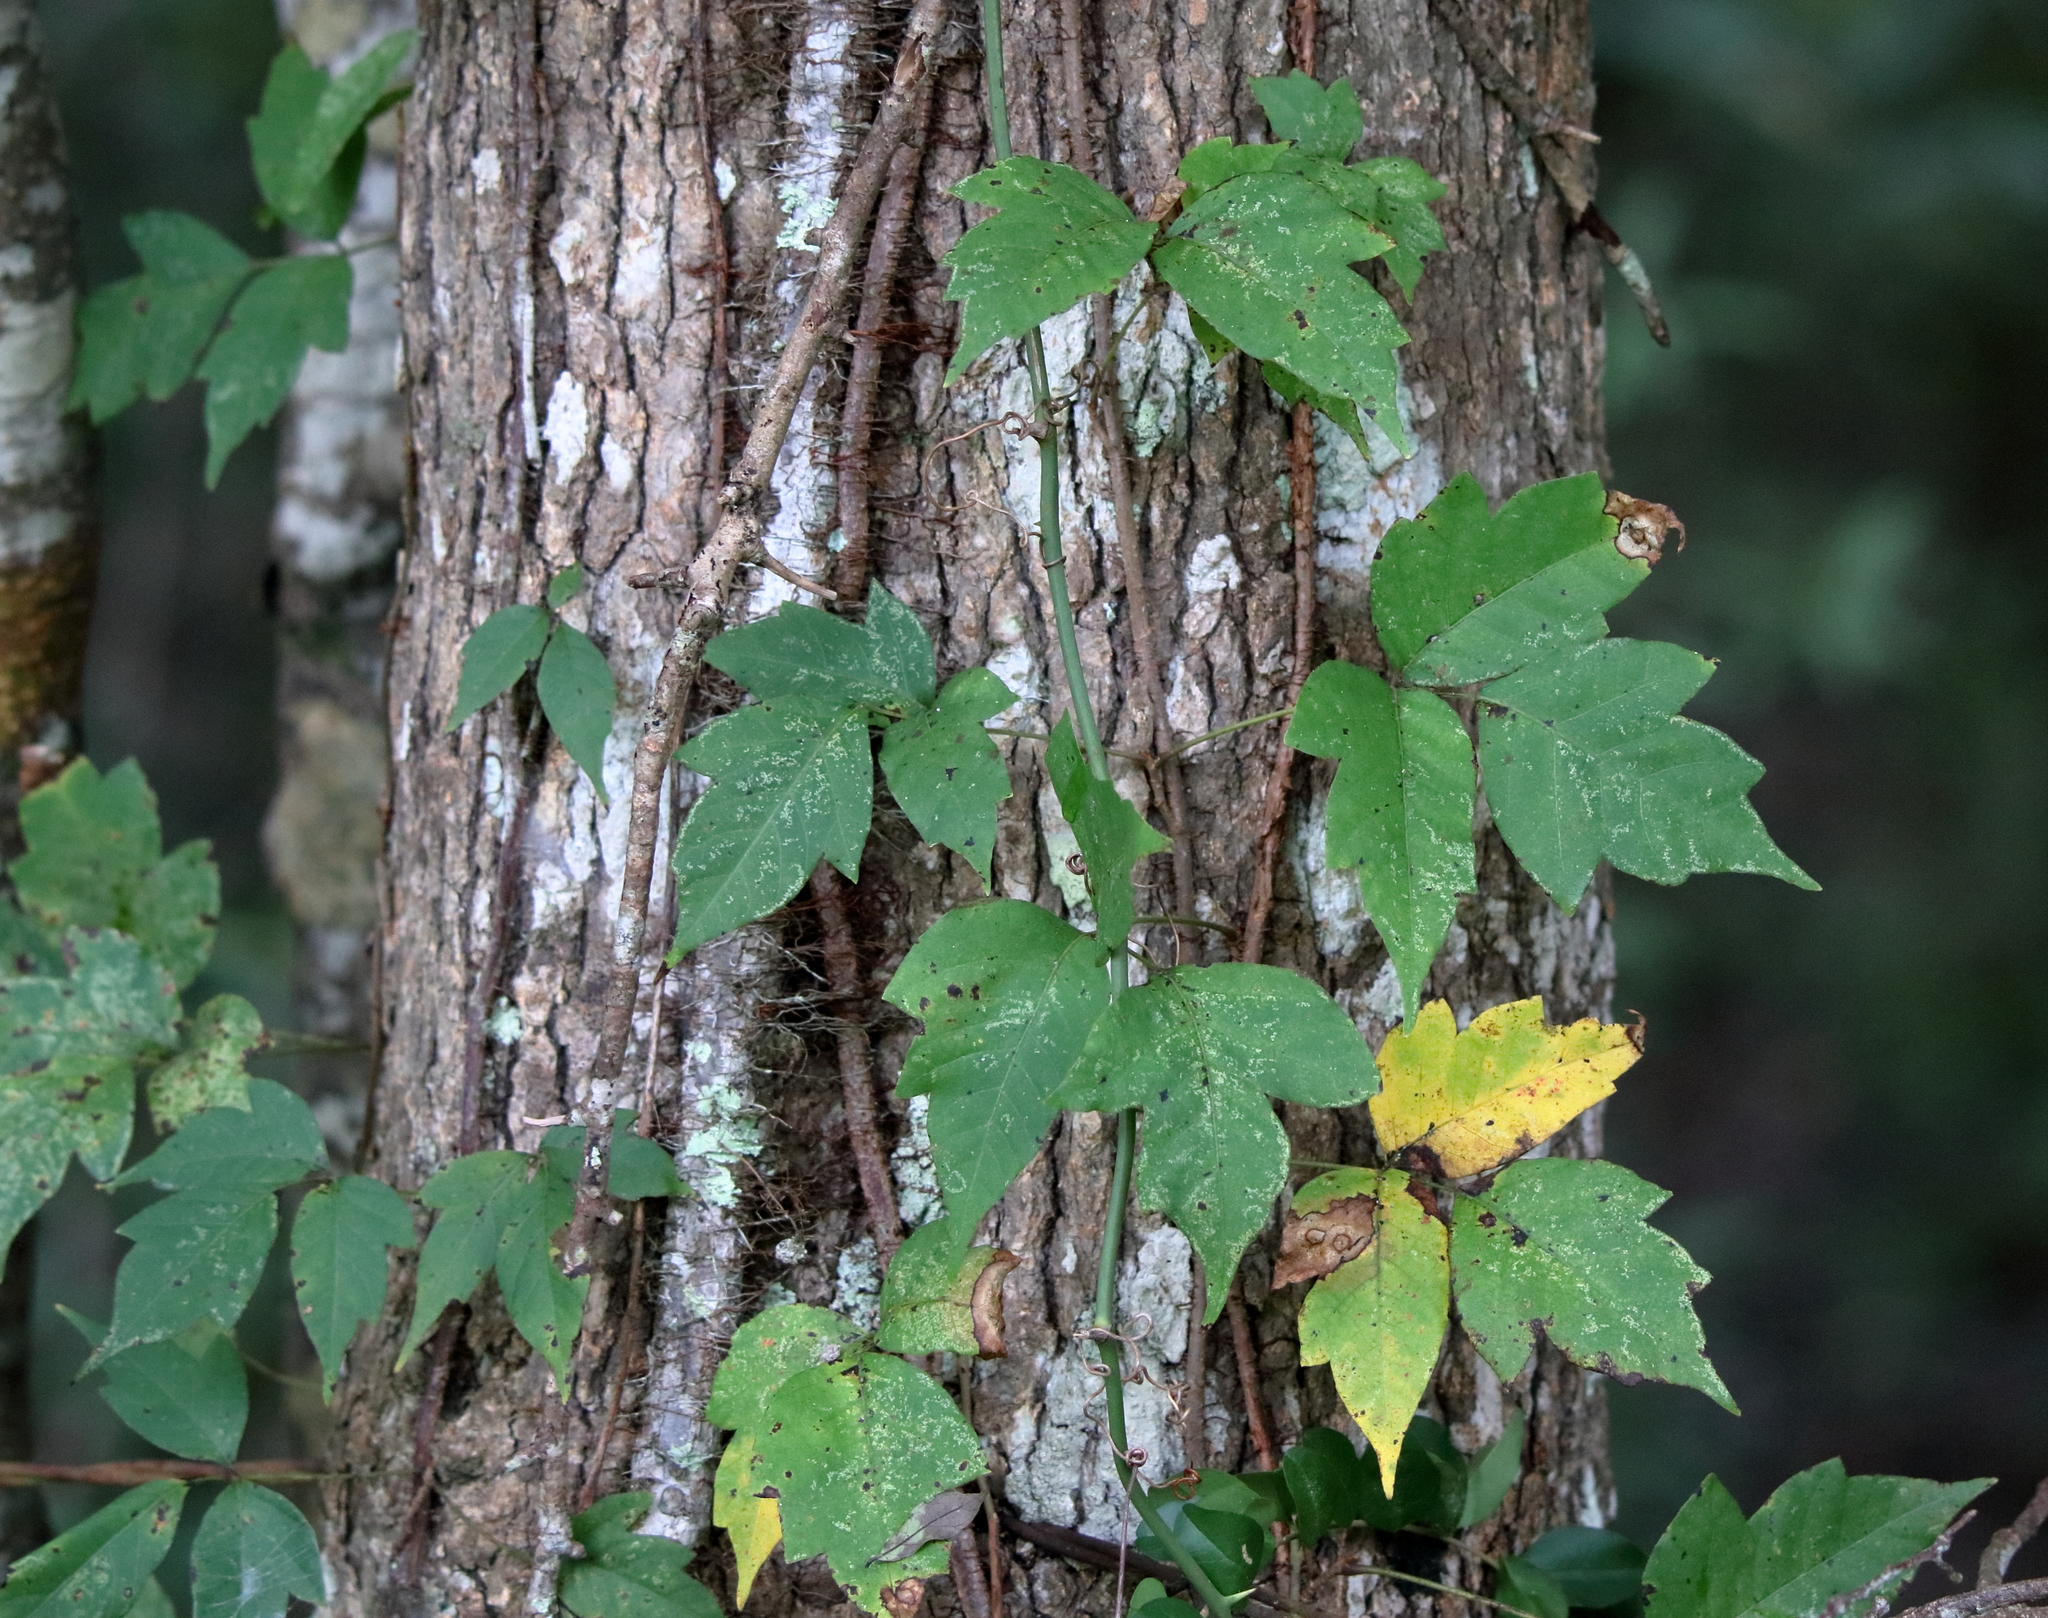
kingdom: Plantae
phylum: Tracheophyta
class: Magnoliopsida
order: Sapindales
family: Anacardiaceae
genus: Toxicodendron
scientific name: Toxicodendron radicans
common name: Poison ivy
